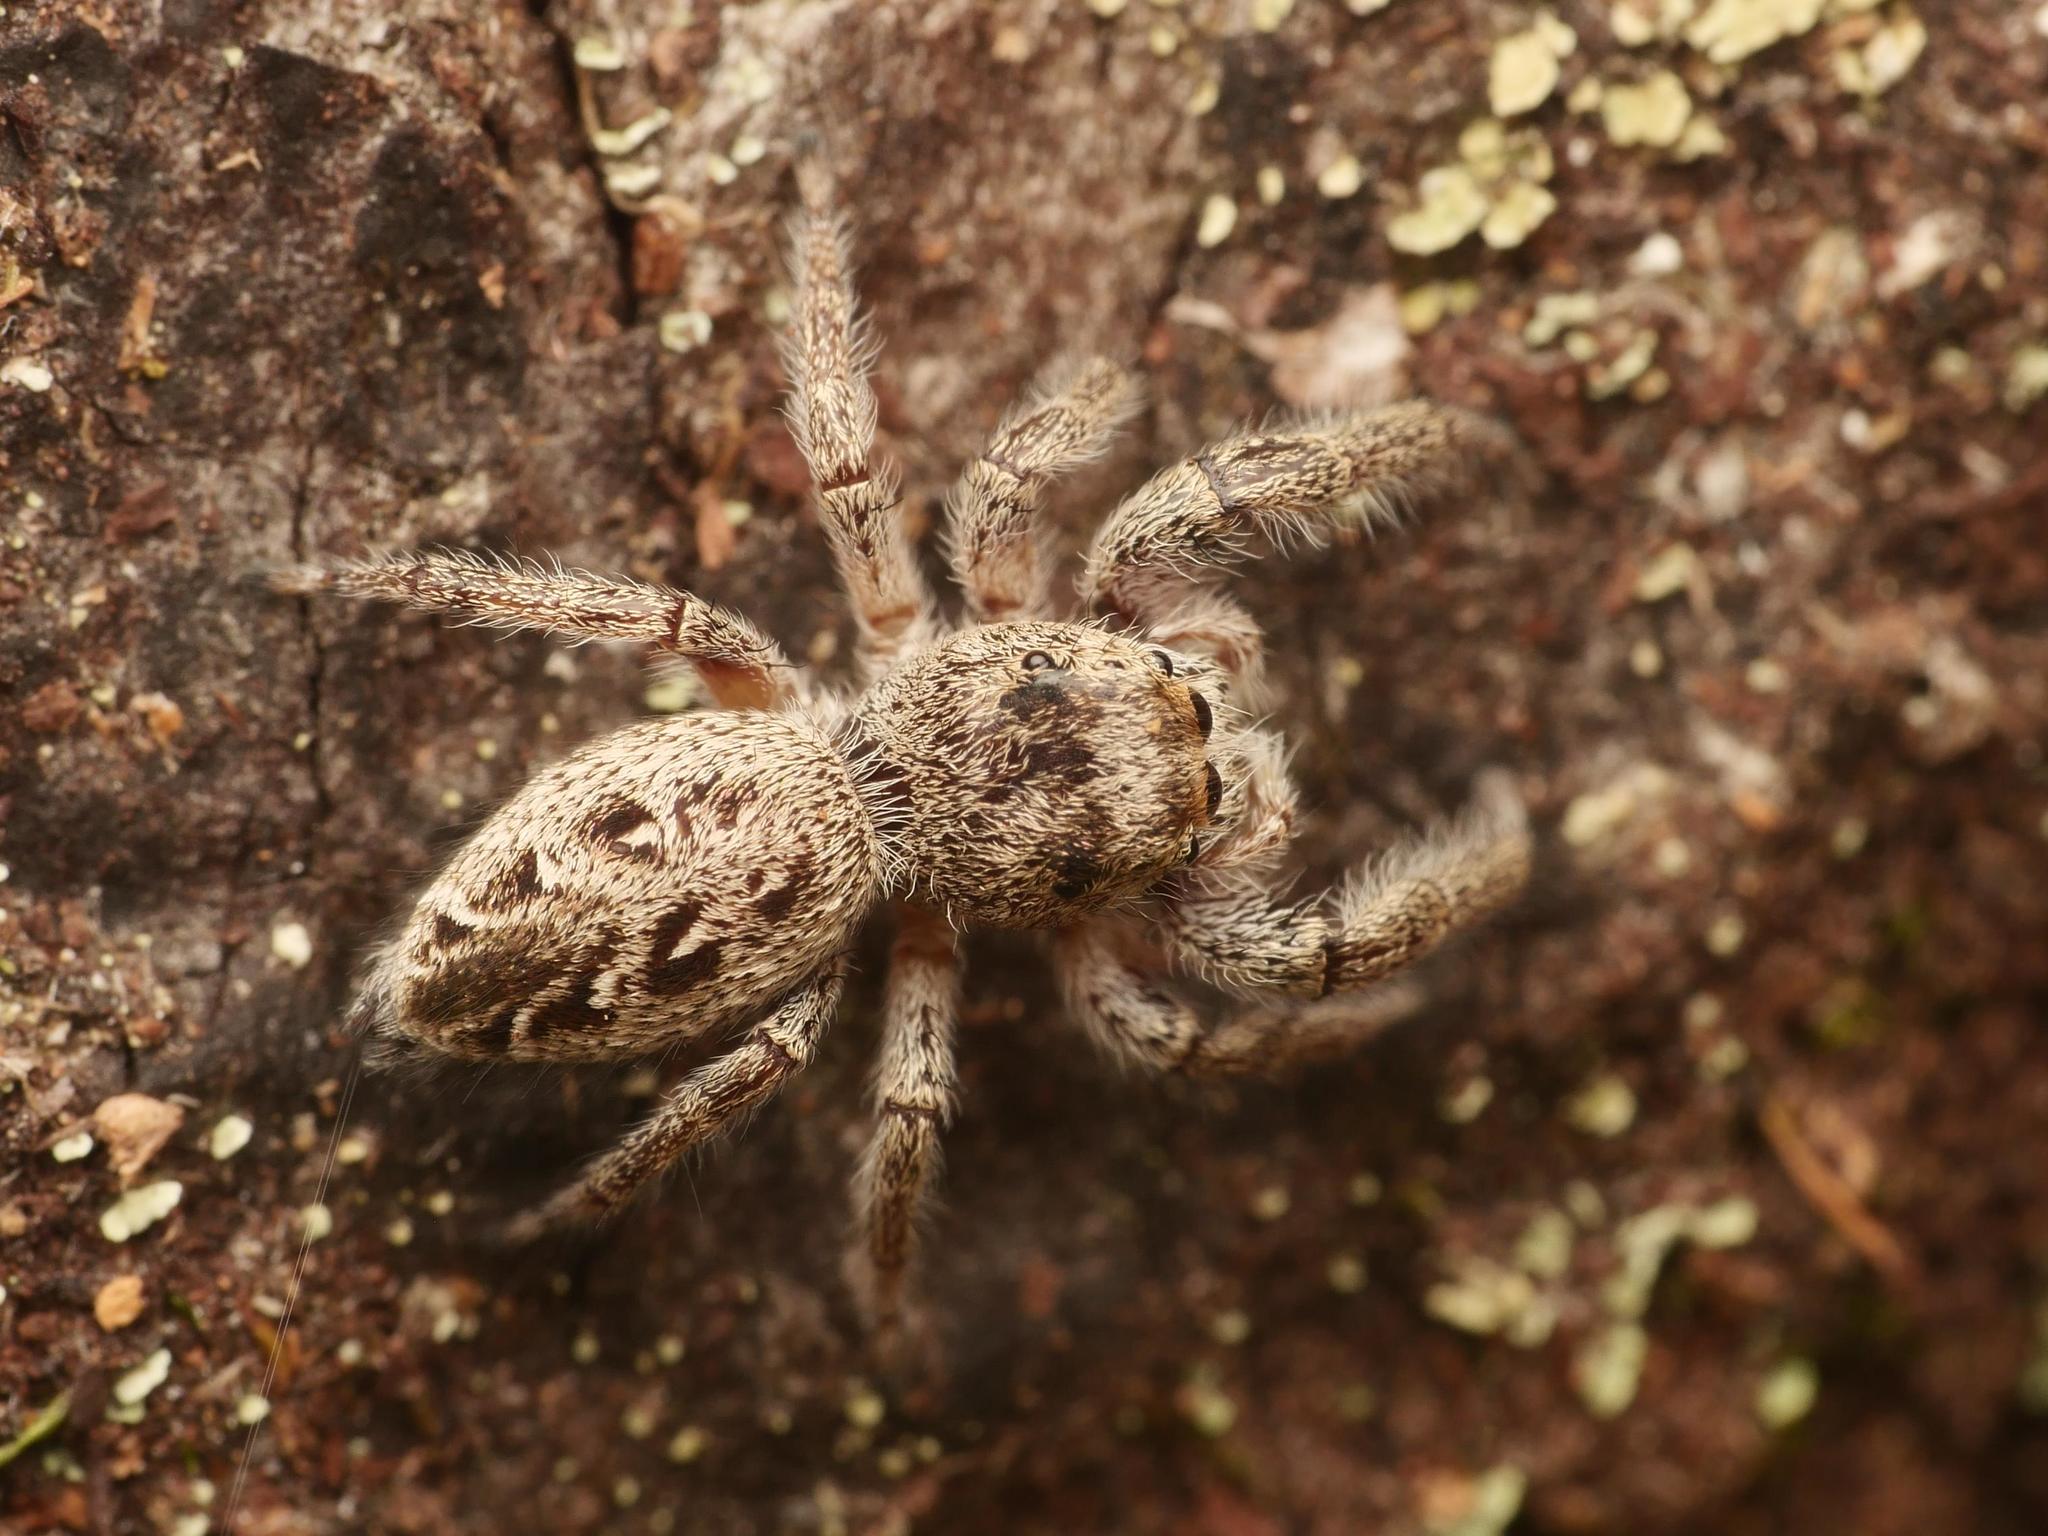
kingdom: Animalia
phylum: Arthropoda
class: Arachnida
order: Araneae
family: Salticidae
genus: Eris
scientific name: Eris militaris
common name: Bronze jumper
